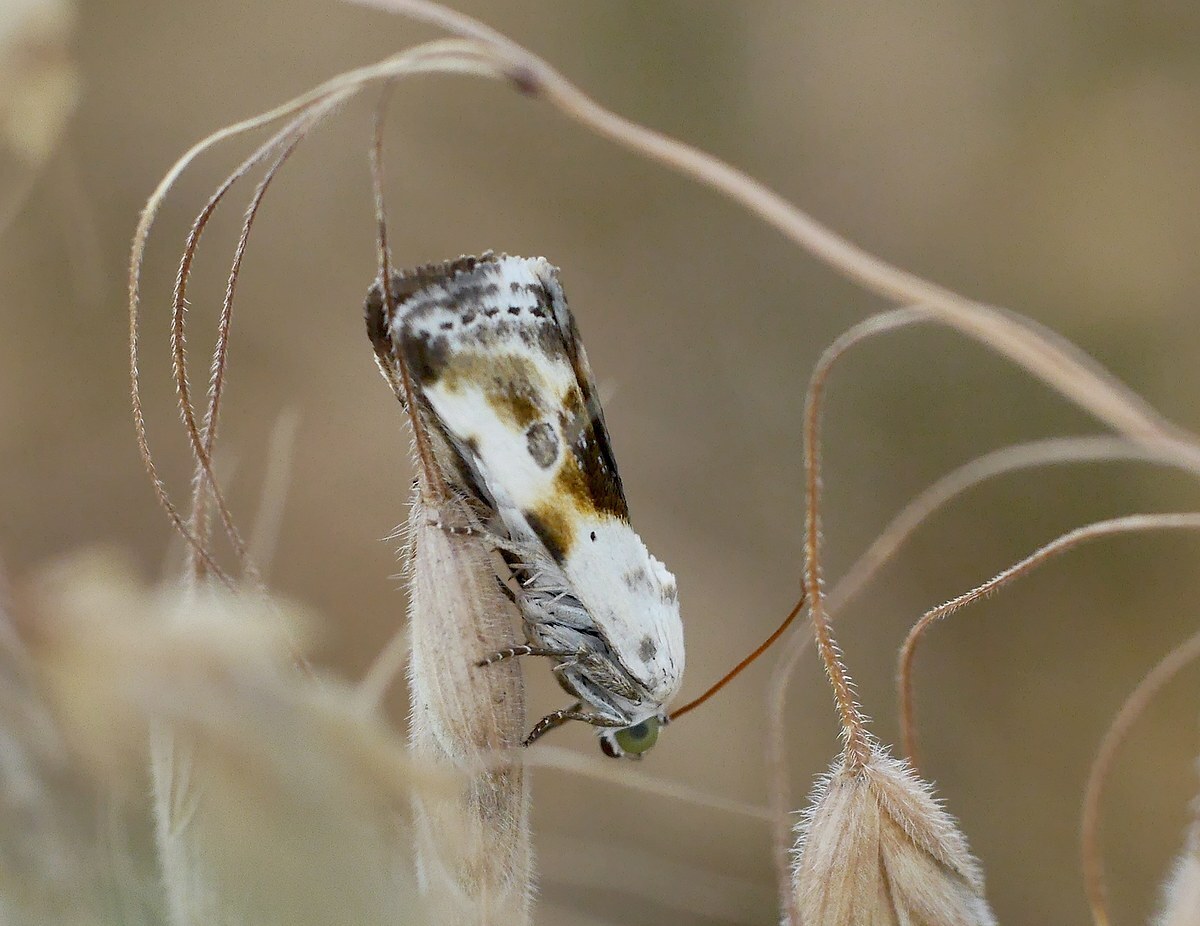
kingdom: Animalia
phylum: Arthropoda
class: Insecta
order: Lepidoptera
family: Noctuidae
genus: Acontia
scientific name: Acontia candefacta
